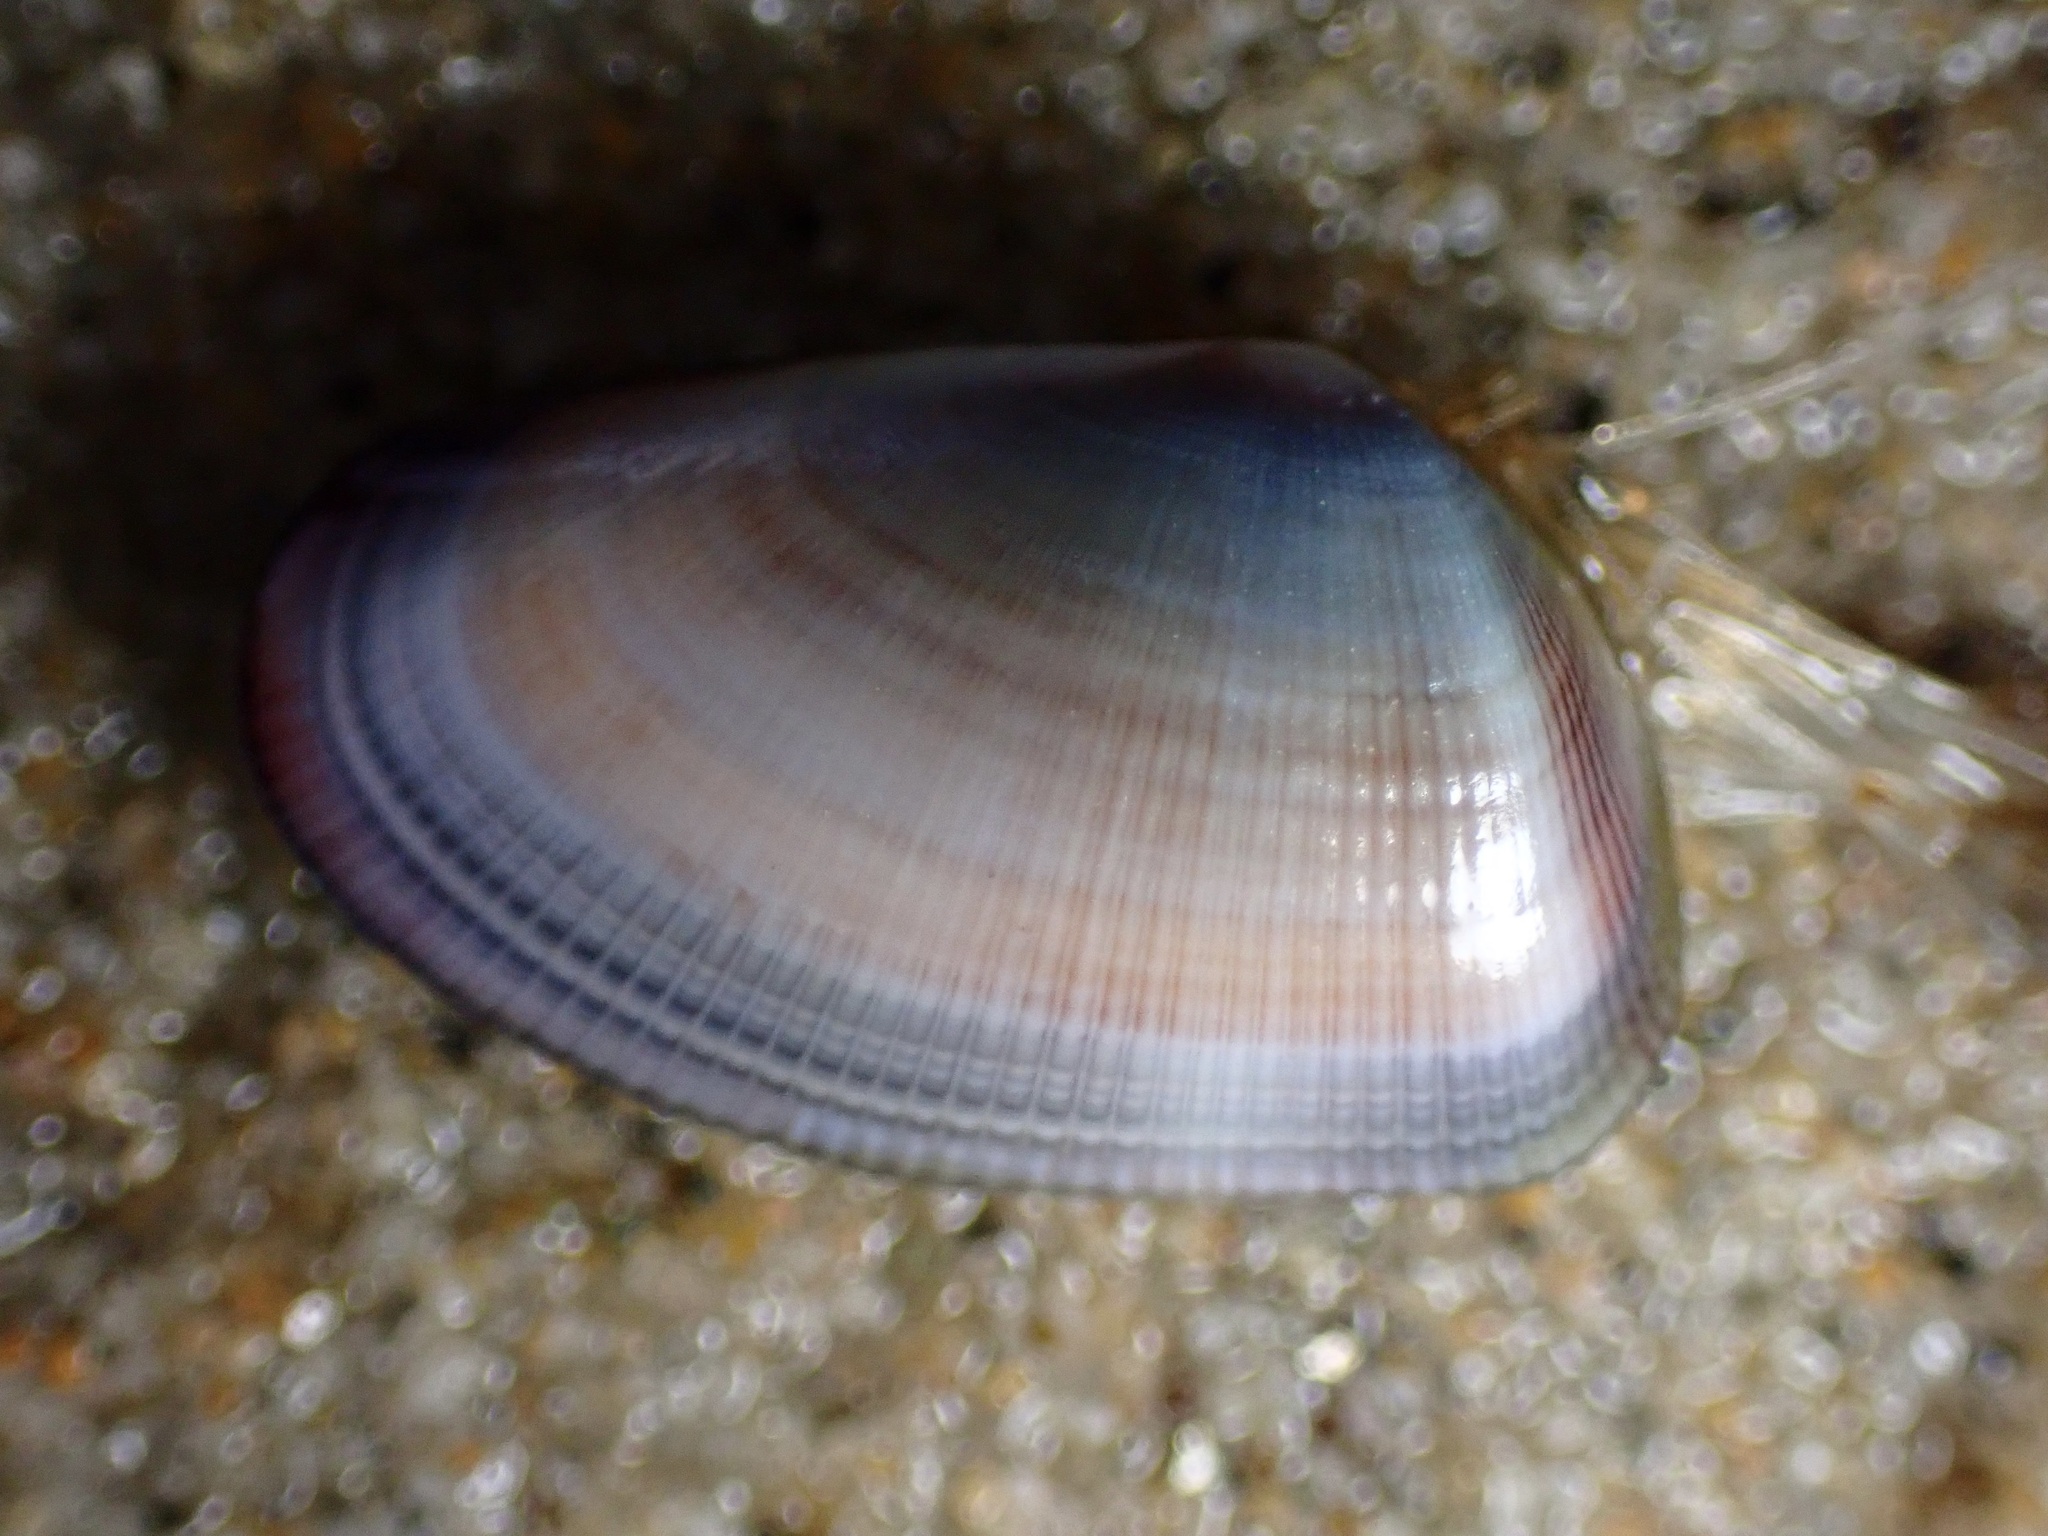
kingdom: Animalia
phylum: Mollusca
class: Bivalvia
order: Cardiida
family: Donacidae
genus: Donax
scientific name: Donax gouldii
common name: Gould beanclam
